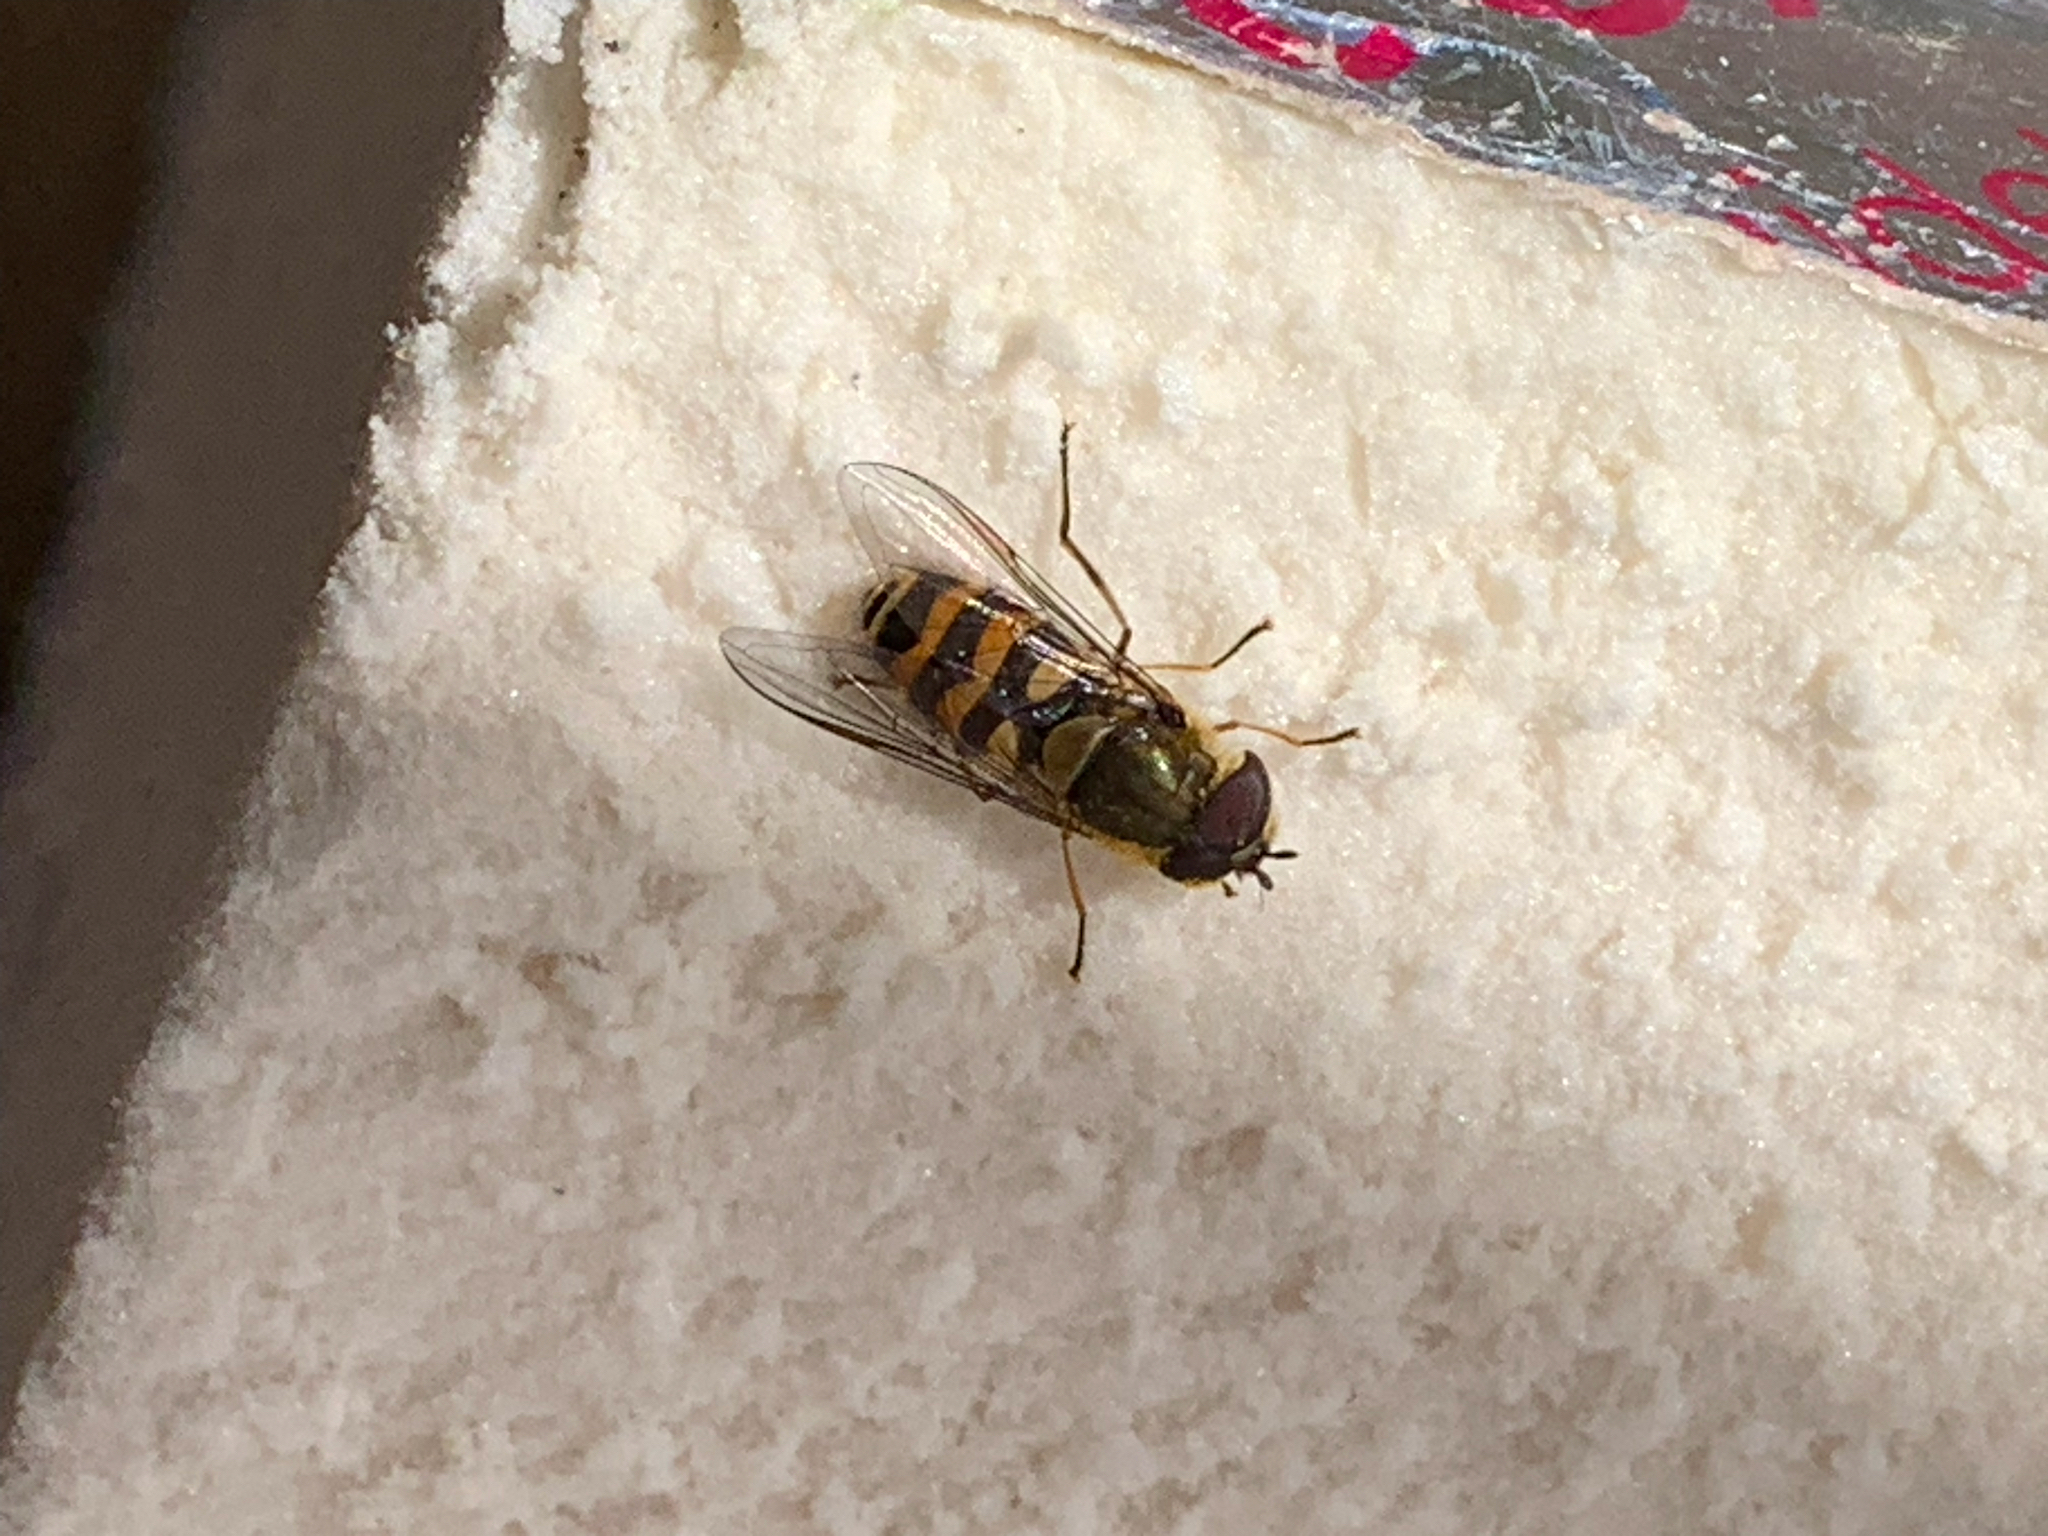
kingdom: Animalia
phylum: Arthropoda
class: Insecta
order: Diptera
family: Syrphidae
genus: Syrphus
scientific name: Syrphus
